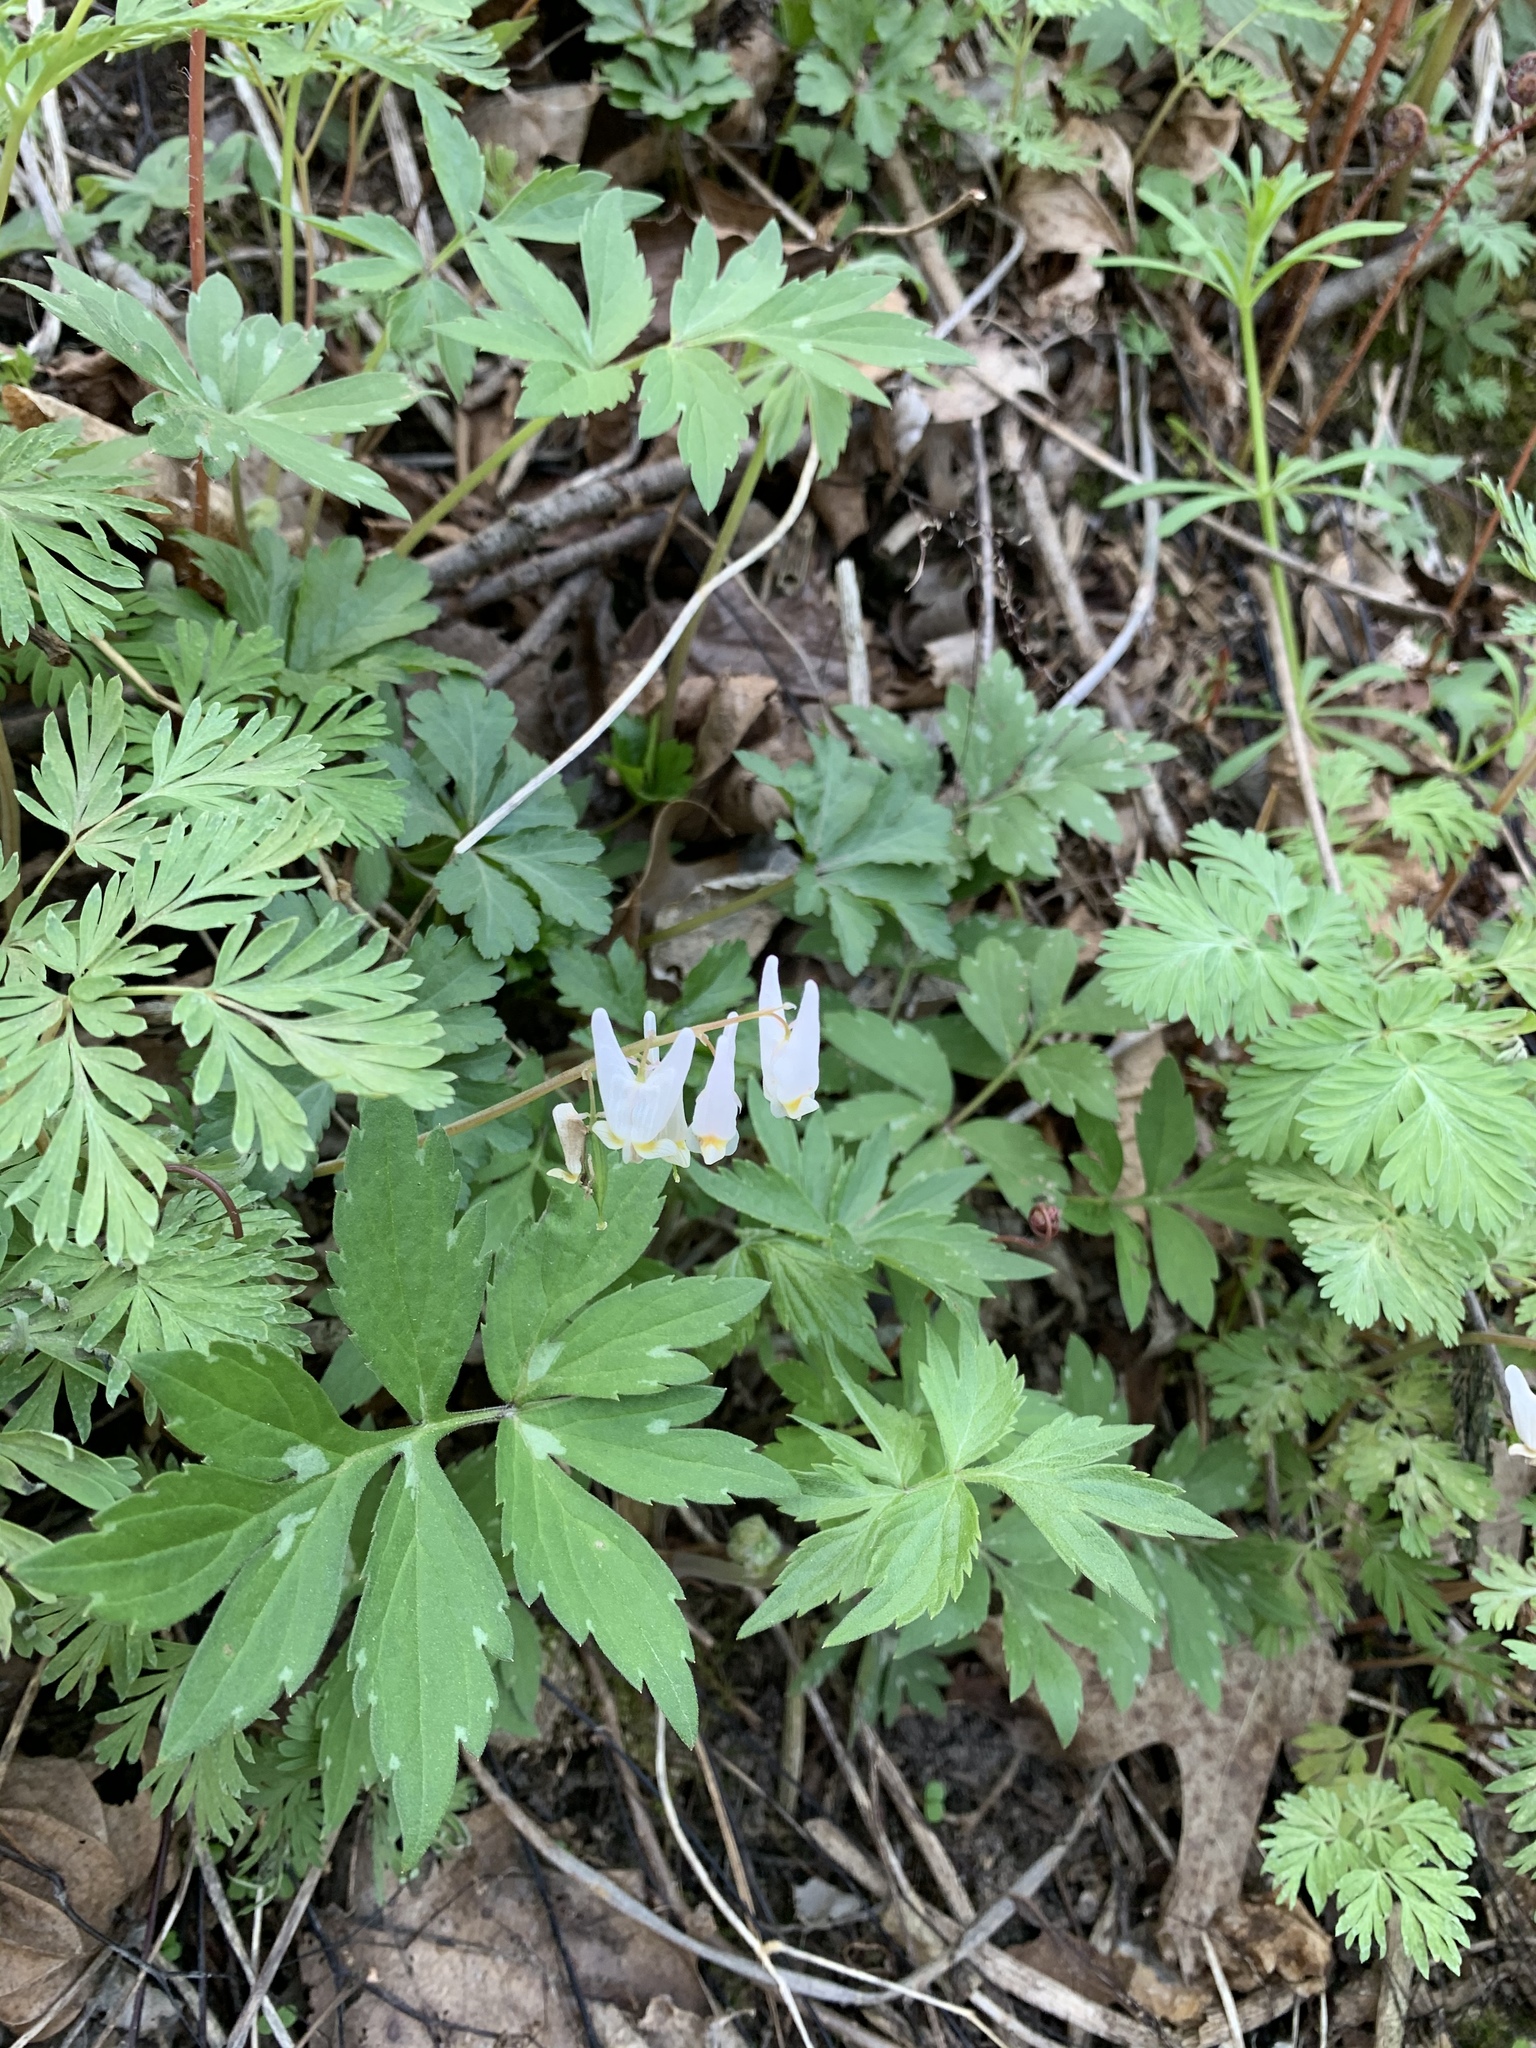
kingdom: Plantae
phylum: Tracheophyta
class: Magnoliopsida
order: Ranunculales
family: Papaveraceae
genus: Dicentra
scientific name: Dicentra cucullaria
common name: Dutchman's breeches
